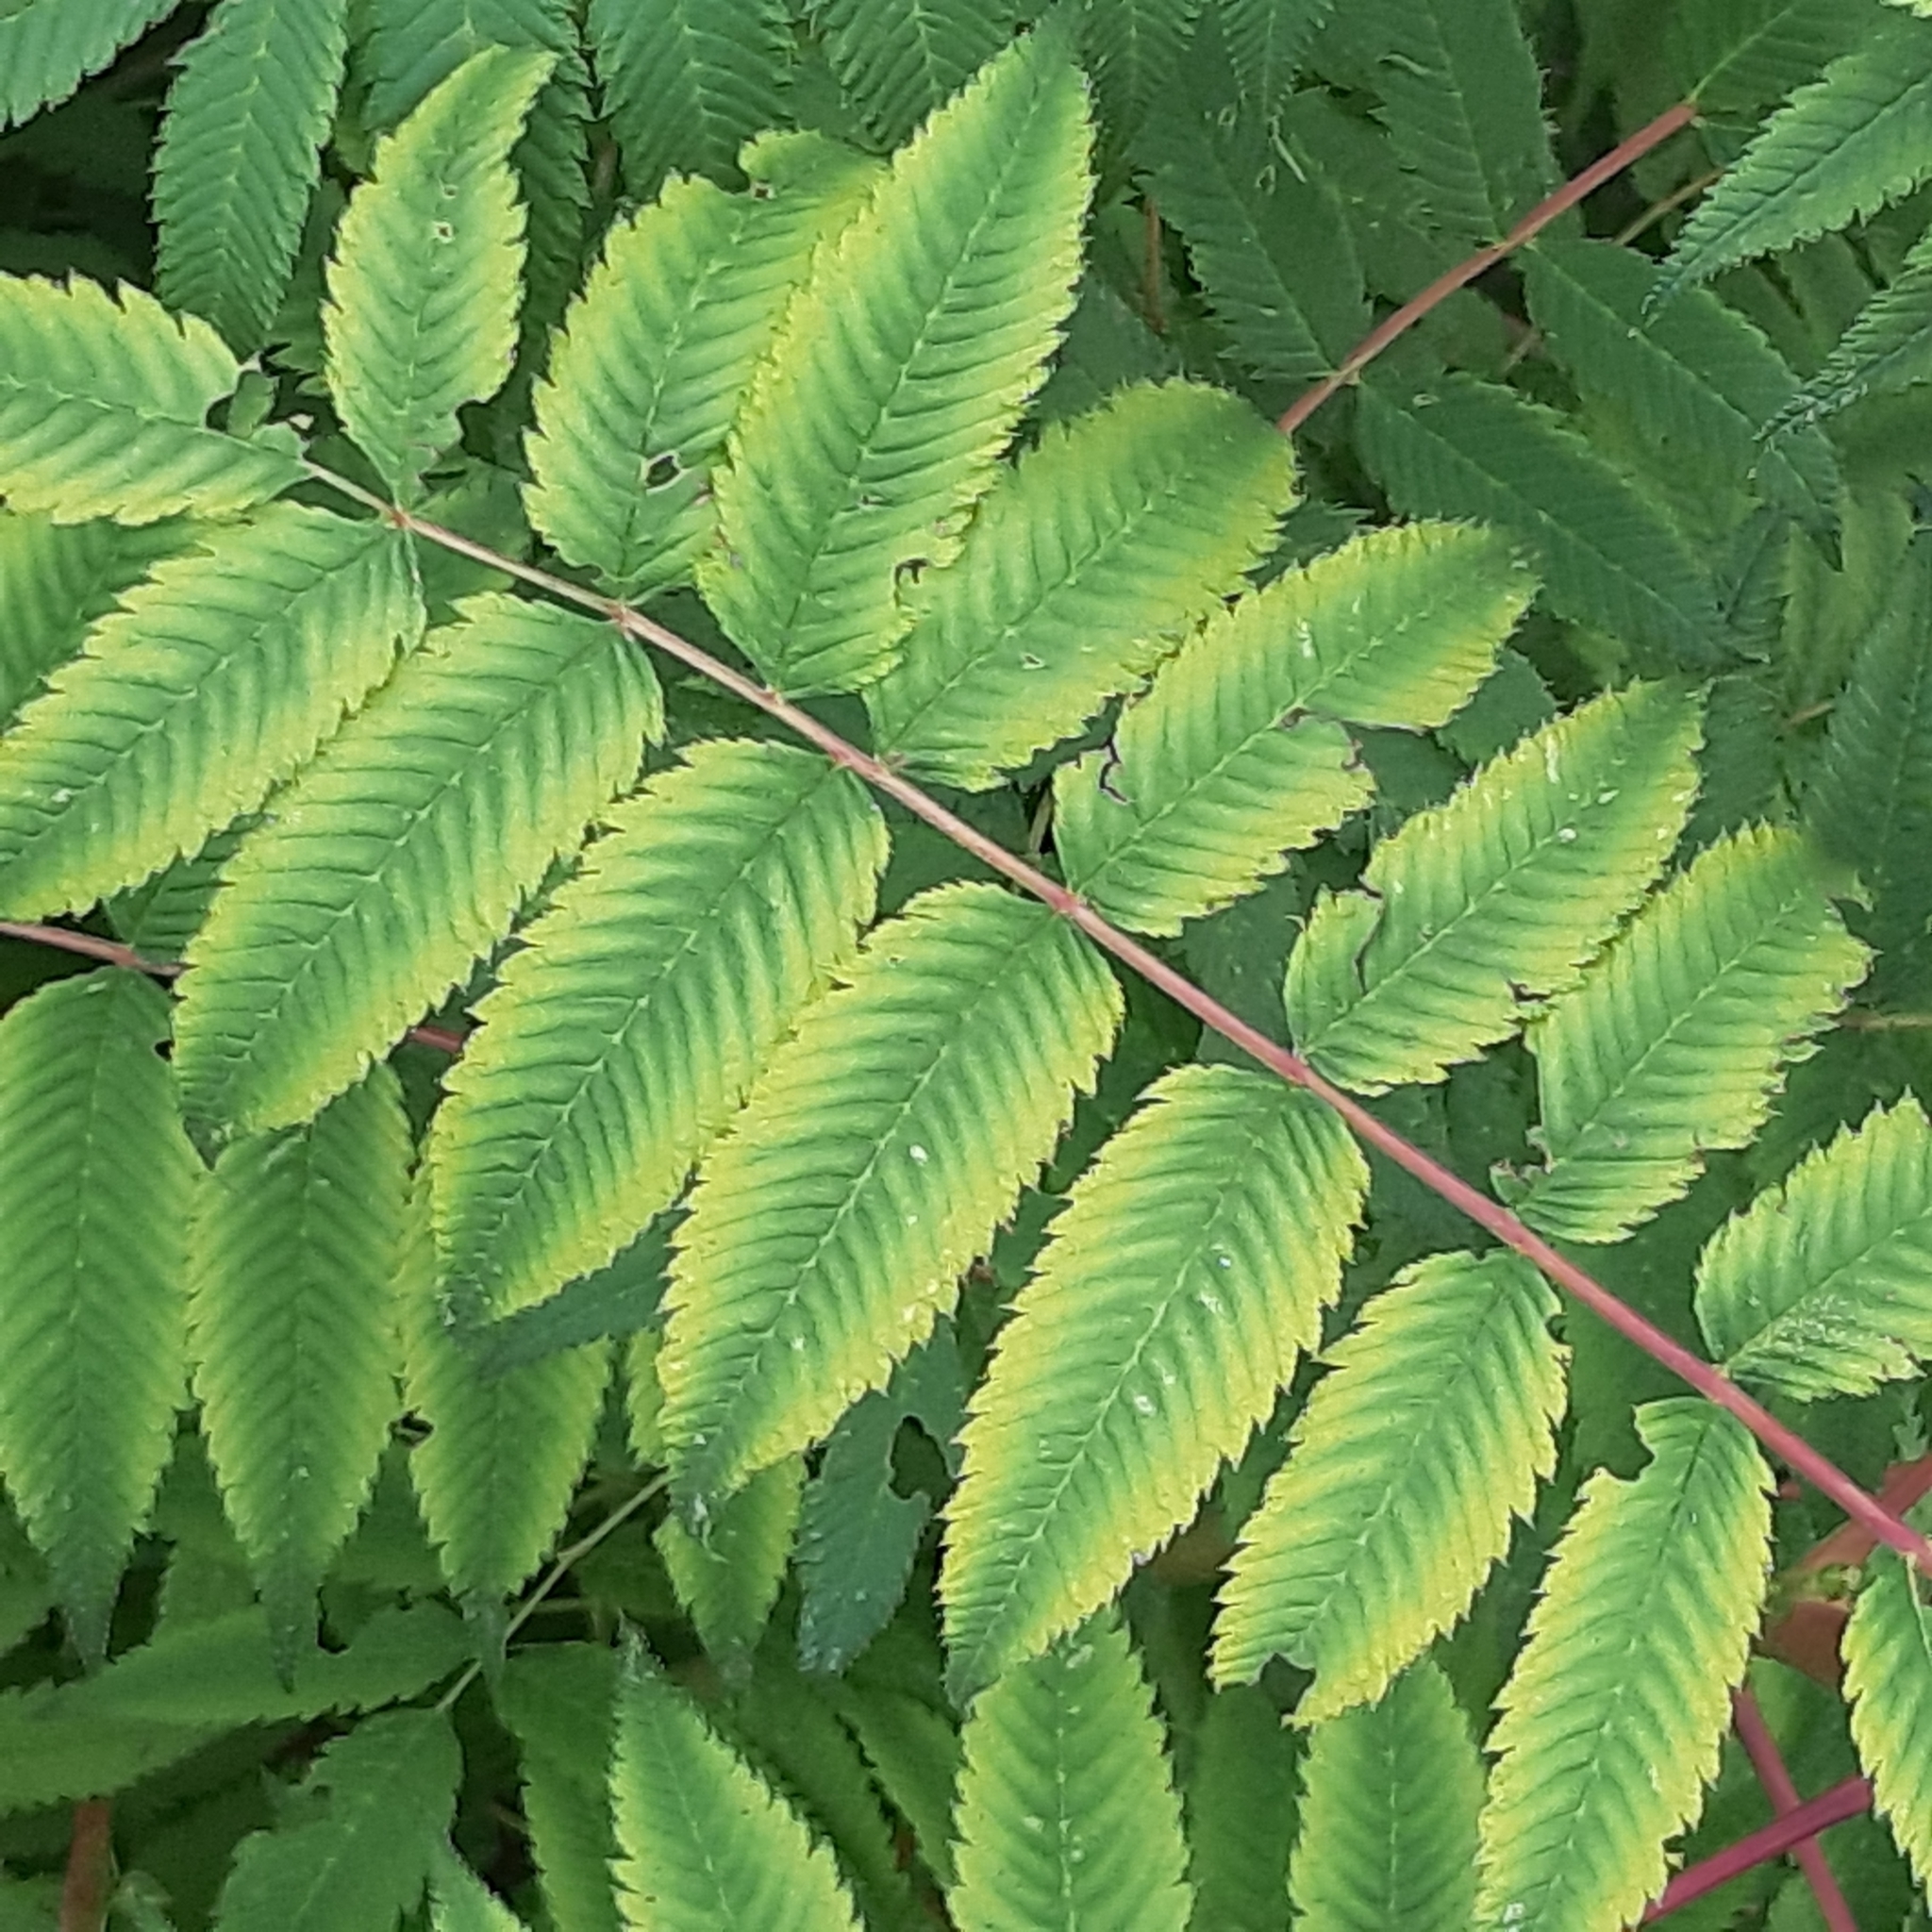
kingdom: Plantae
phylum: Tracheophyta
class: Magnoliopsida
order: Rosales
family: Rosaceae
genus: Sorbaria
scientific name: Sorbaria sorbifolia
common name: False spiraea
